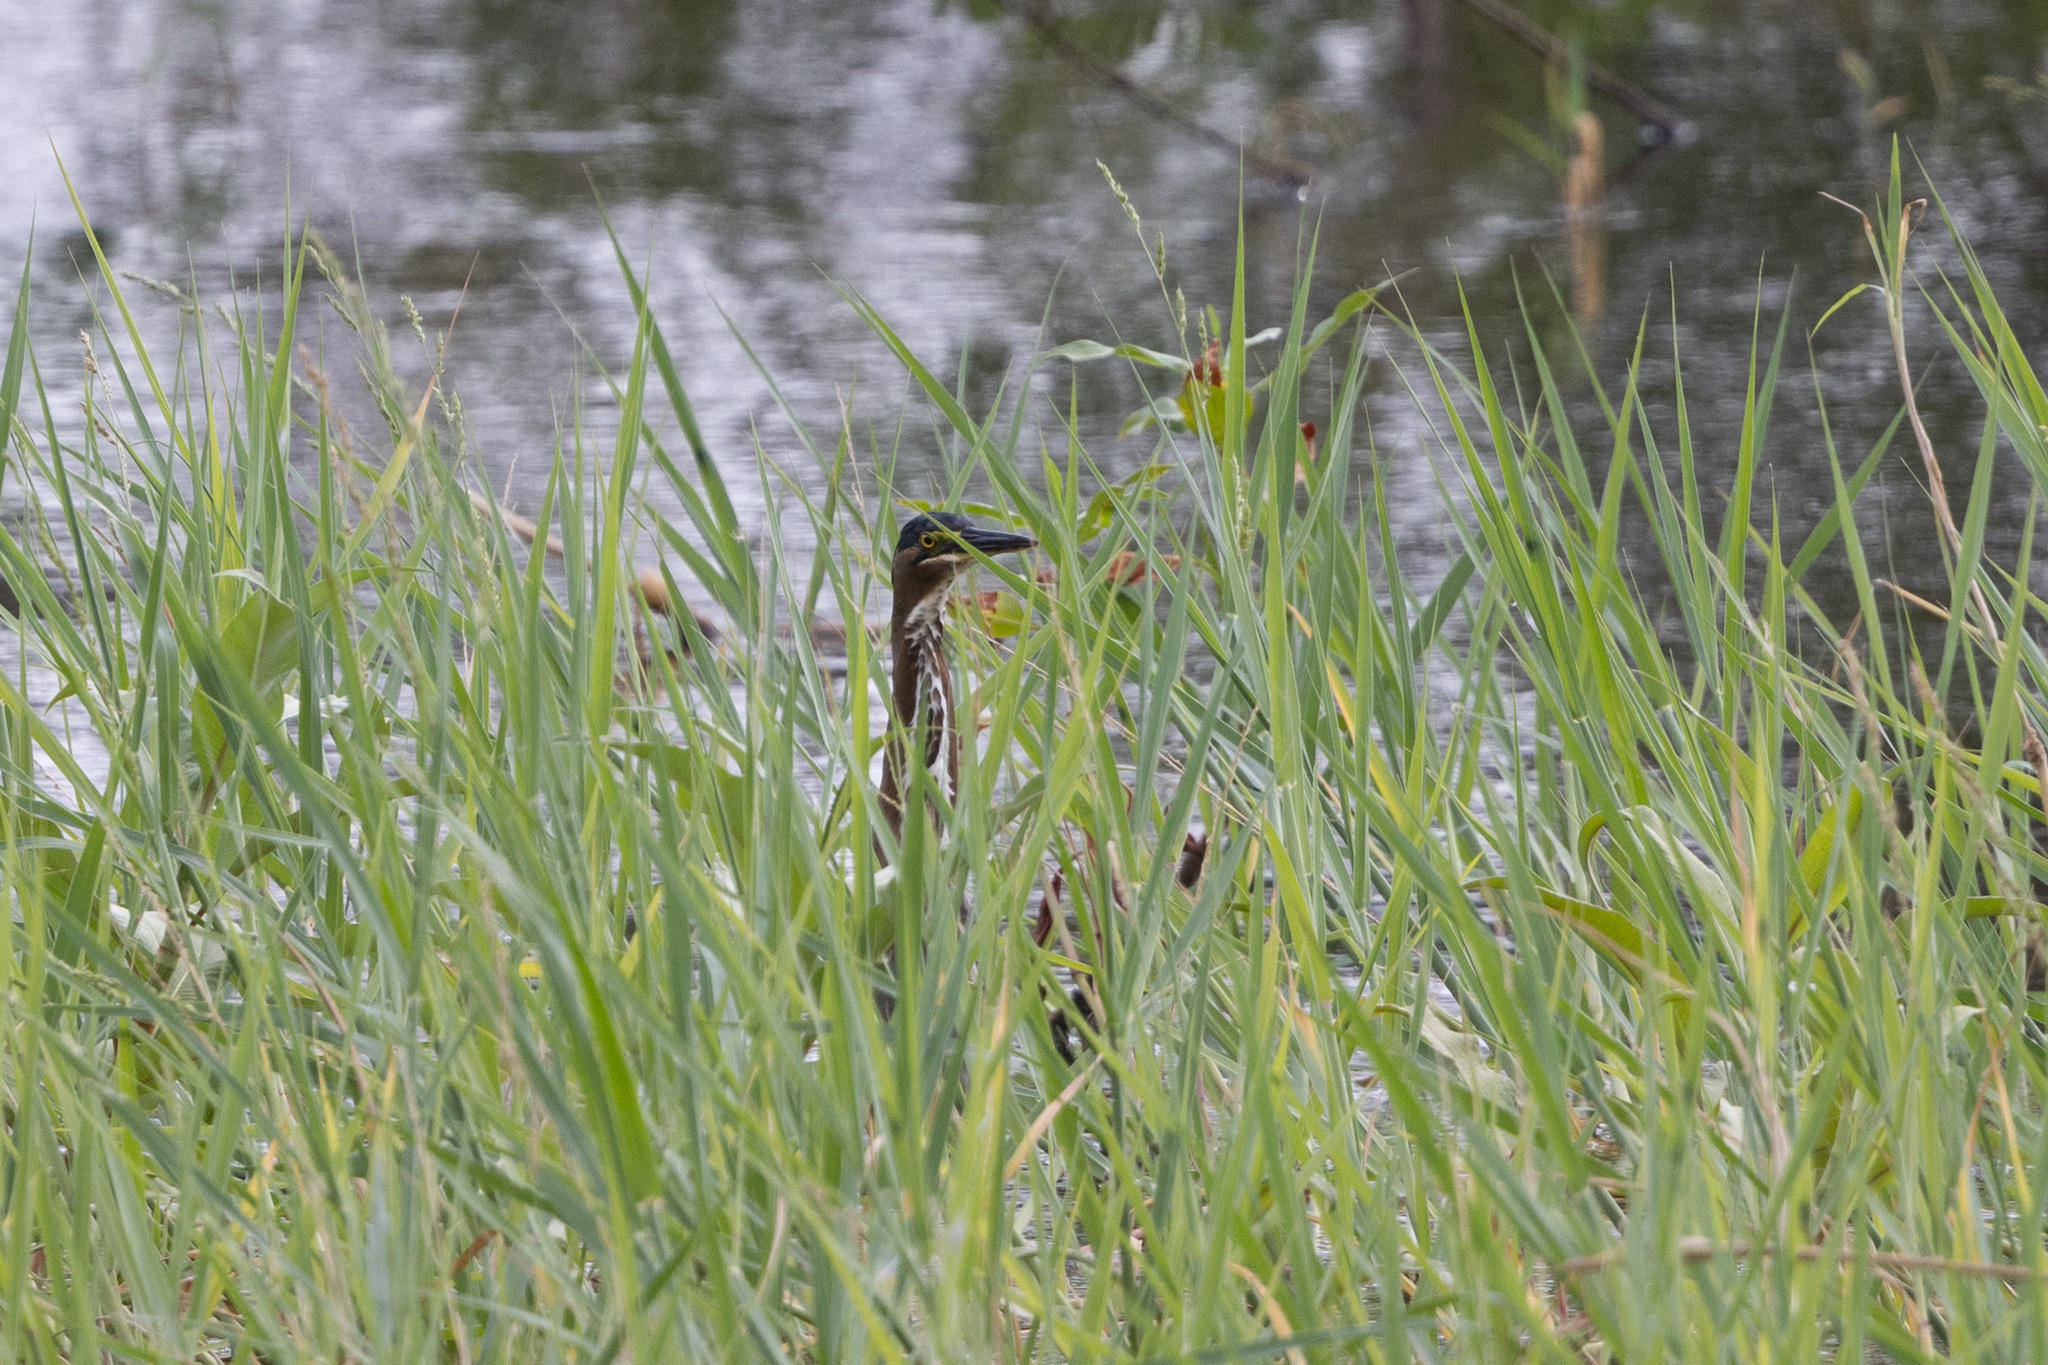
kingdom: Animalia
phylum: Chordata
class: Aves
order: Pelecaniformes
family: Ardeidae
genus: Butorides
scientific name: Butorides virescens
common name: Green heron
